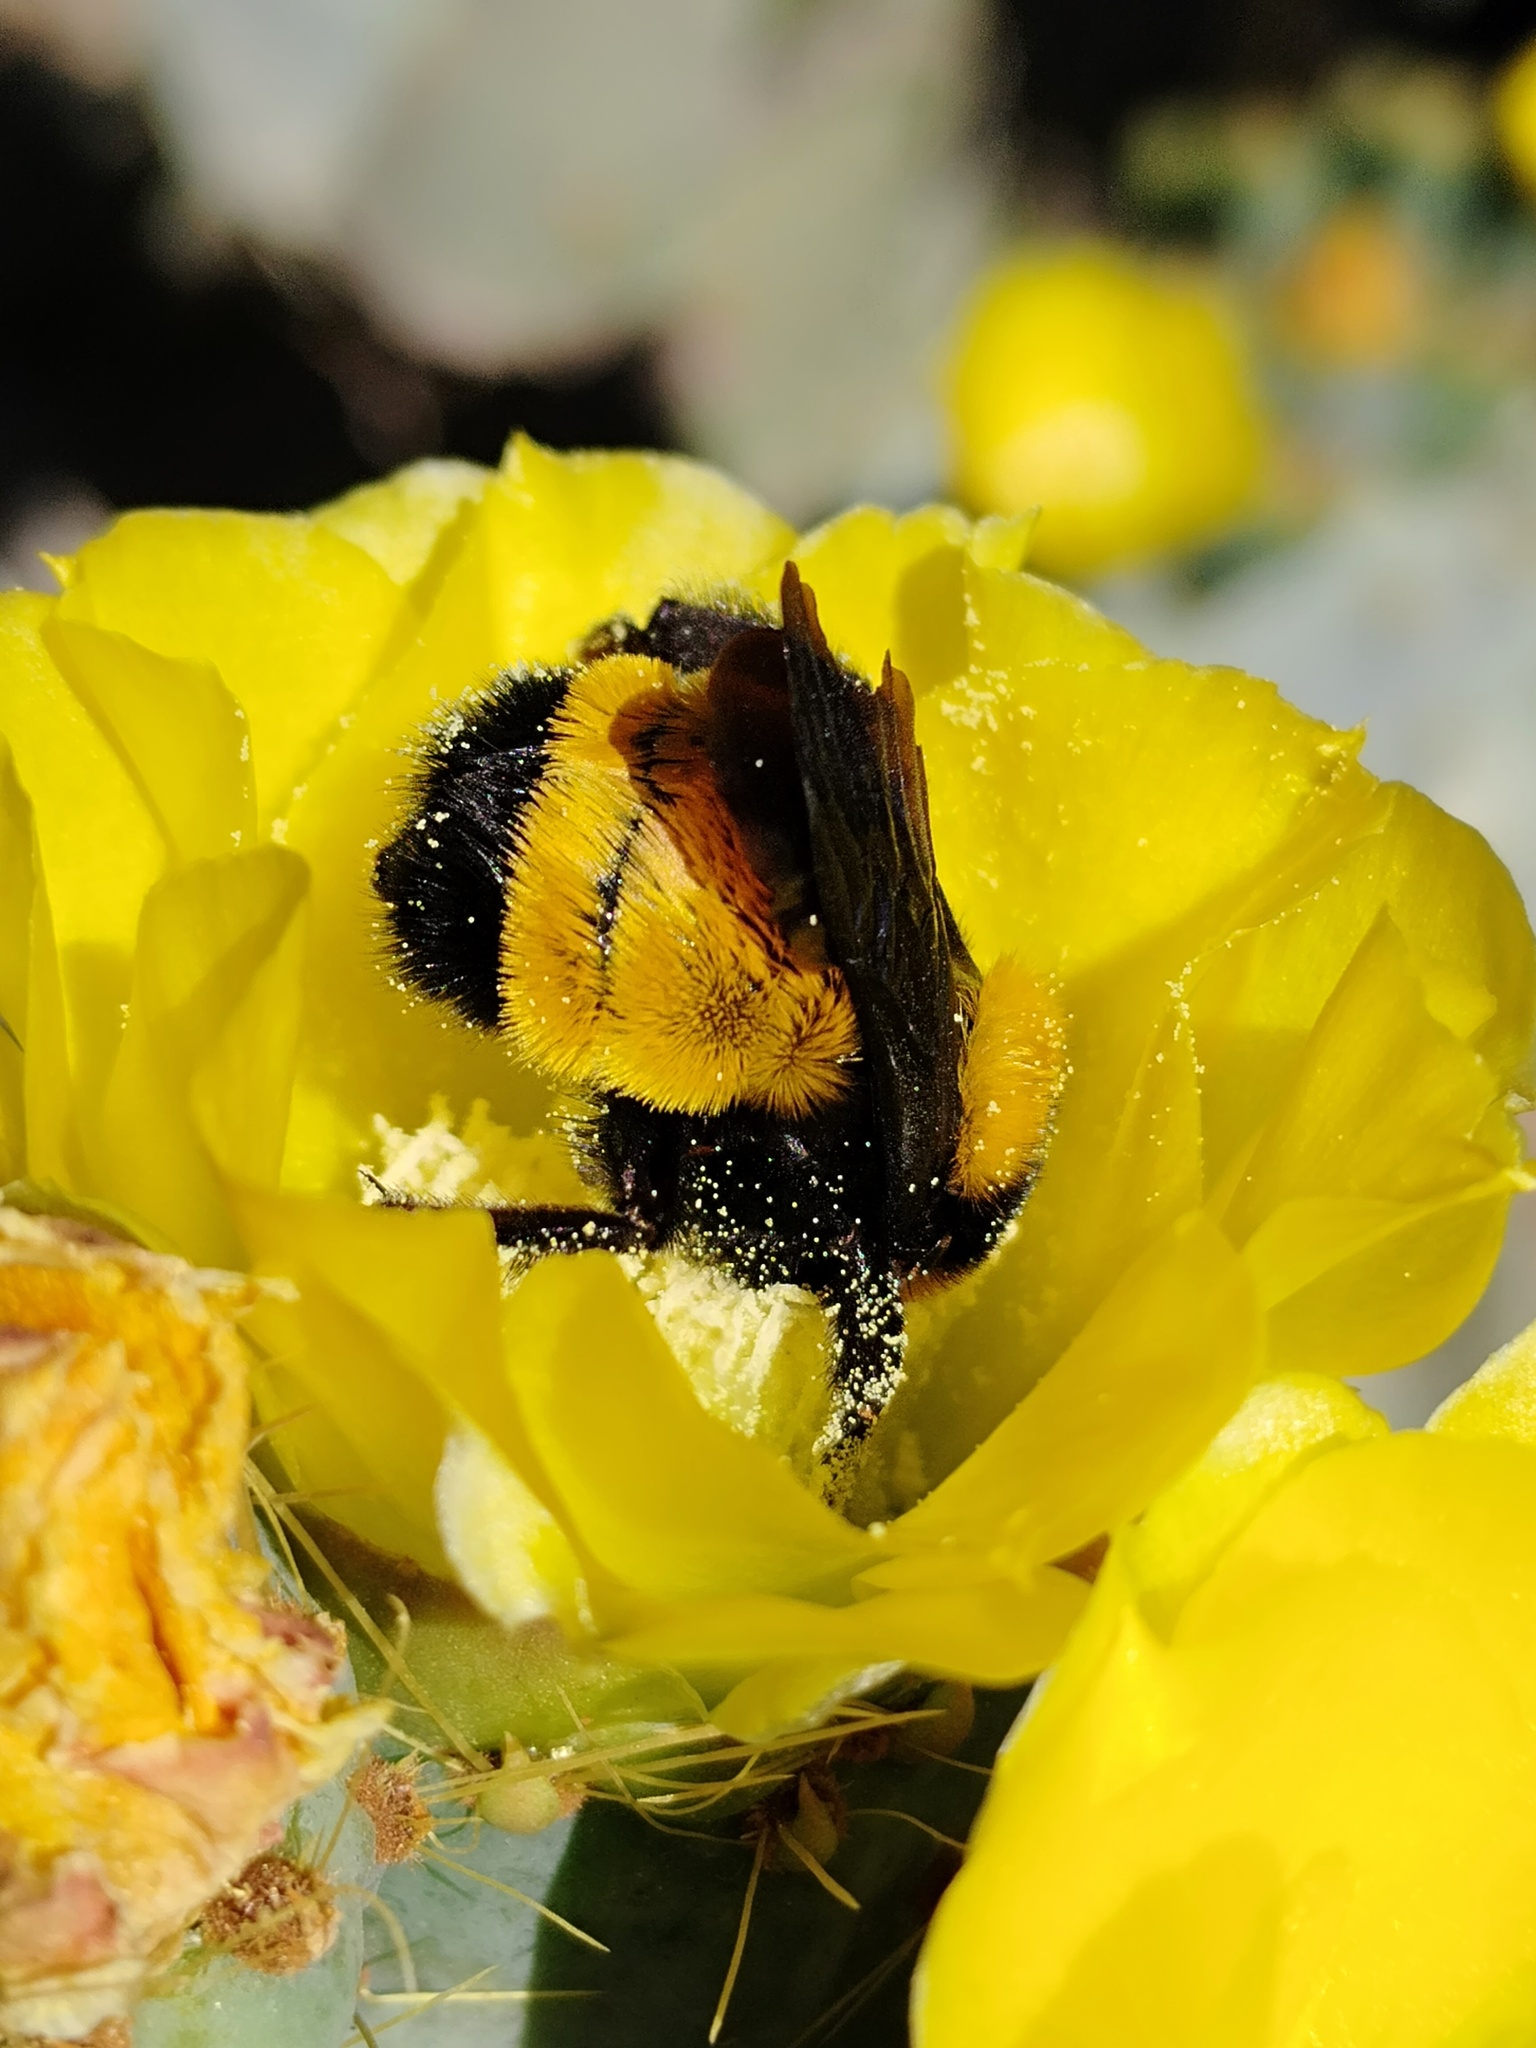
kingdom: Animalia
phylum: Arthropoda
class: Insecta
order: Hymenoptera
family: Apidae
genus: Bombus
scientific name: Bombus sonorus
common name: Sonoran bumble bee
